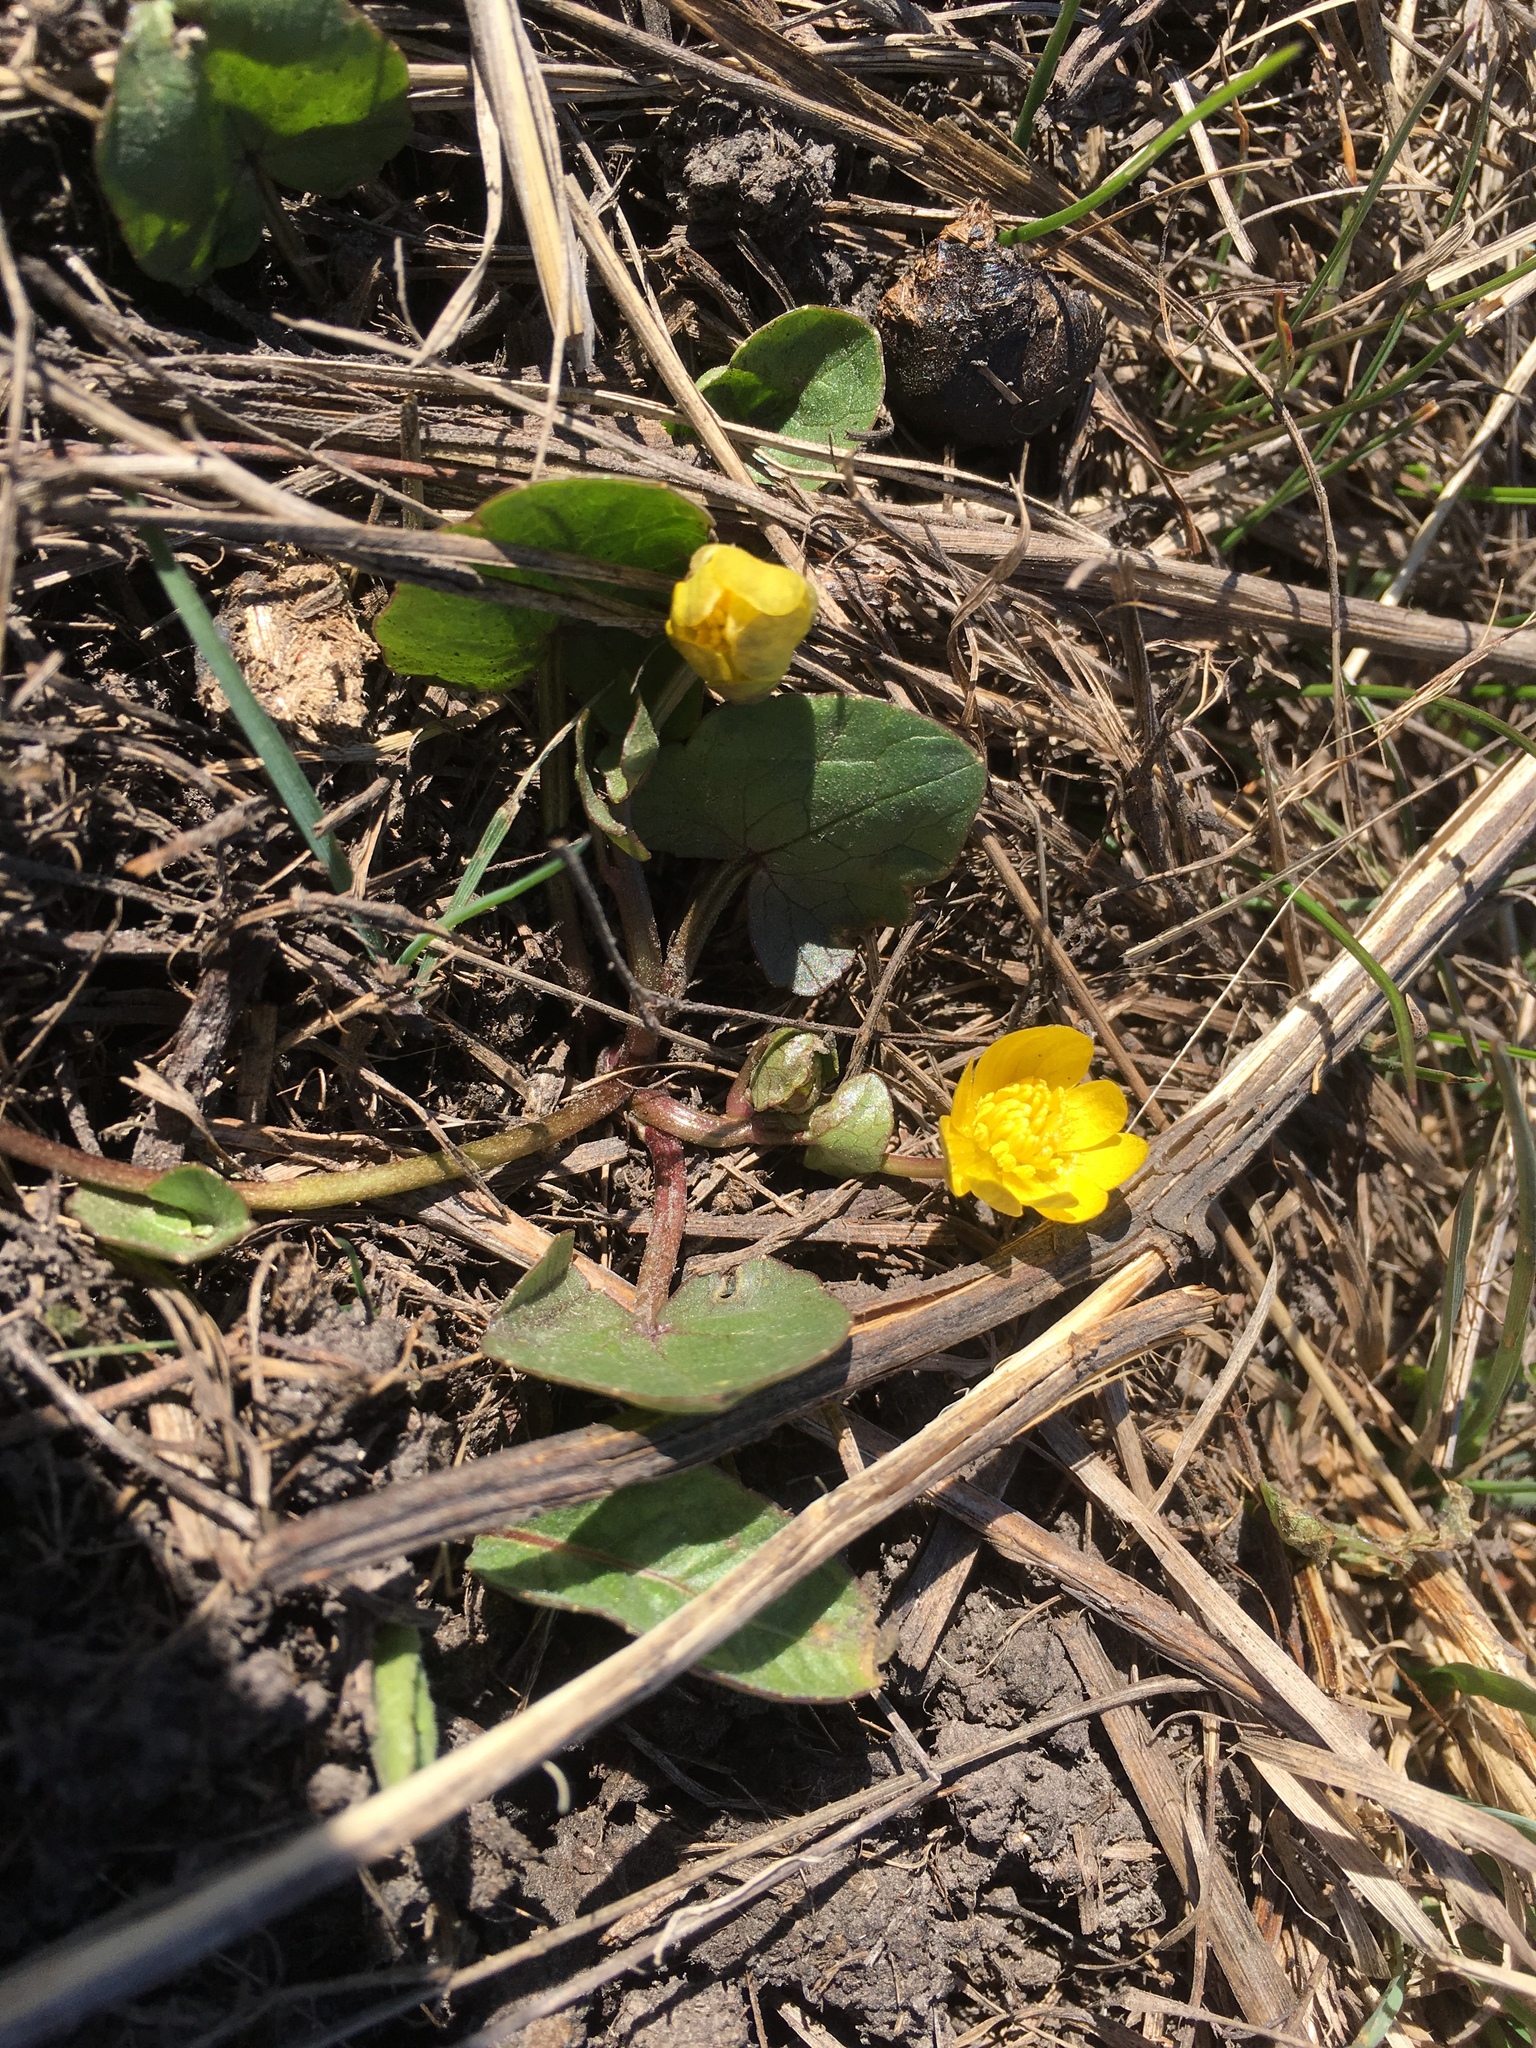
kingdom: Plantae
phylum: Tracheophyta
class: Magnoliopsida
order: Ranunculales
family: Ranunculaceae
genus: Ficaria
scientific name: Ficaria verna
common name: Lesser celandine
